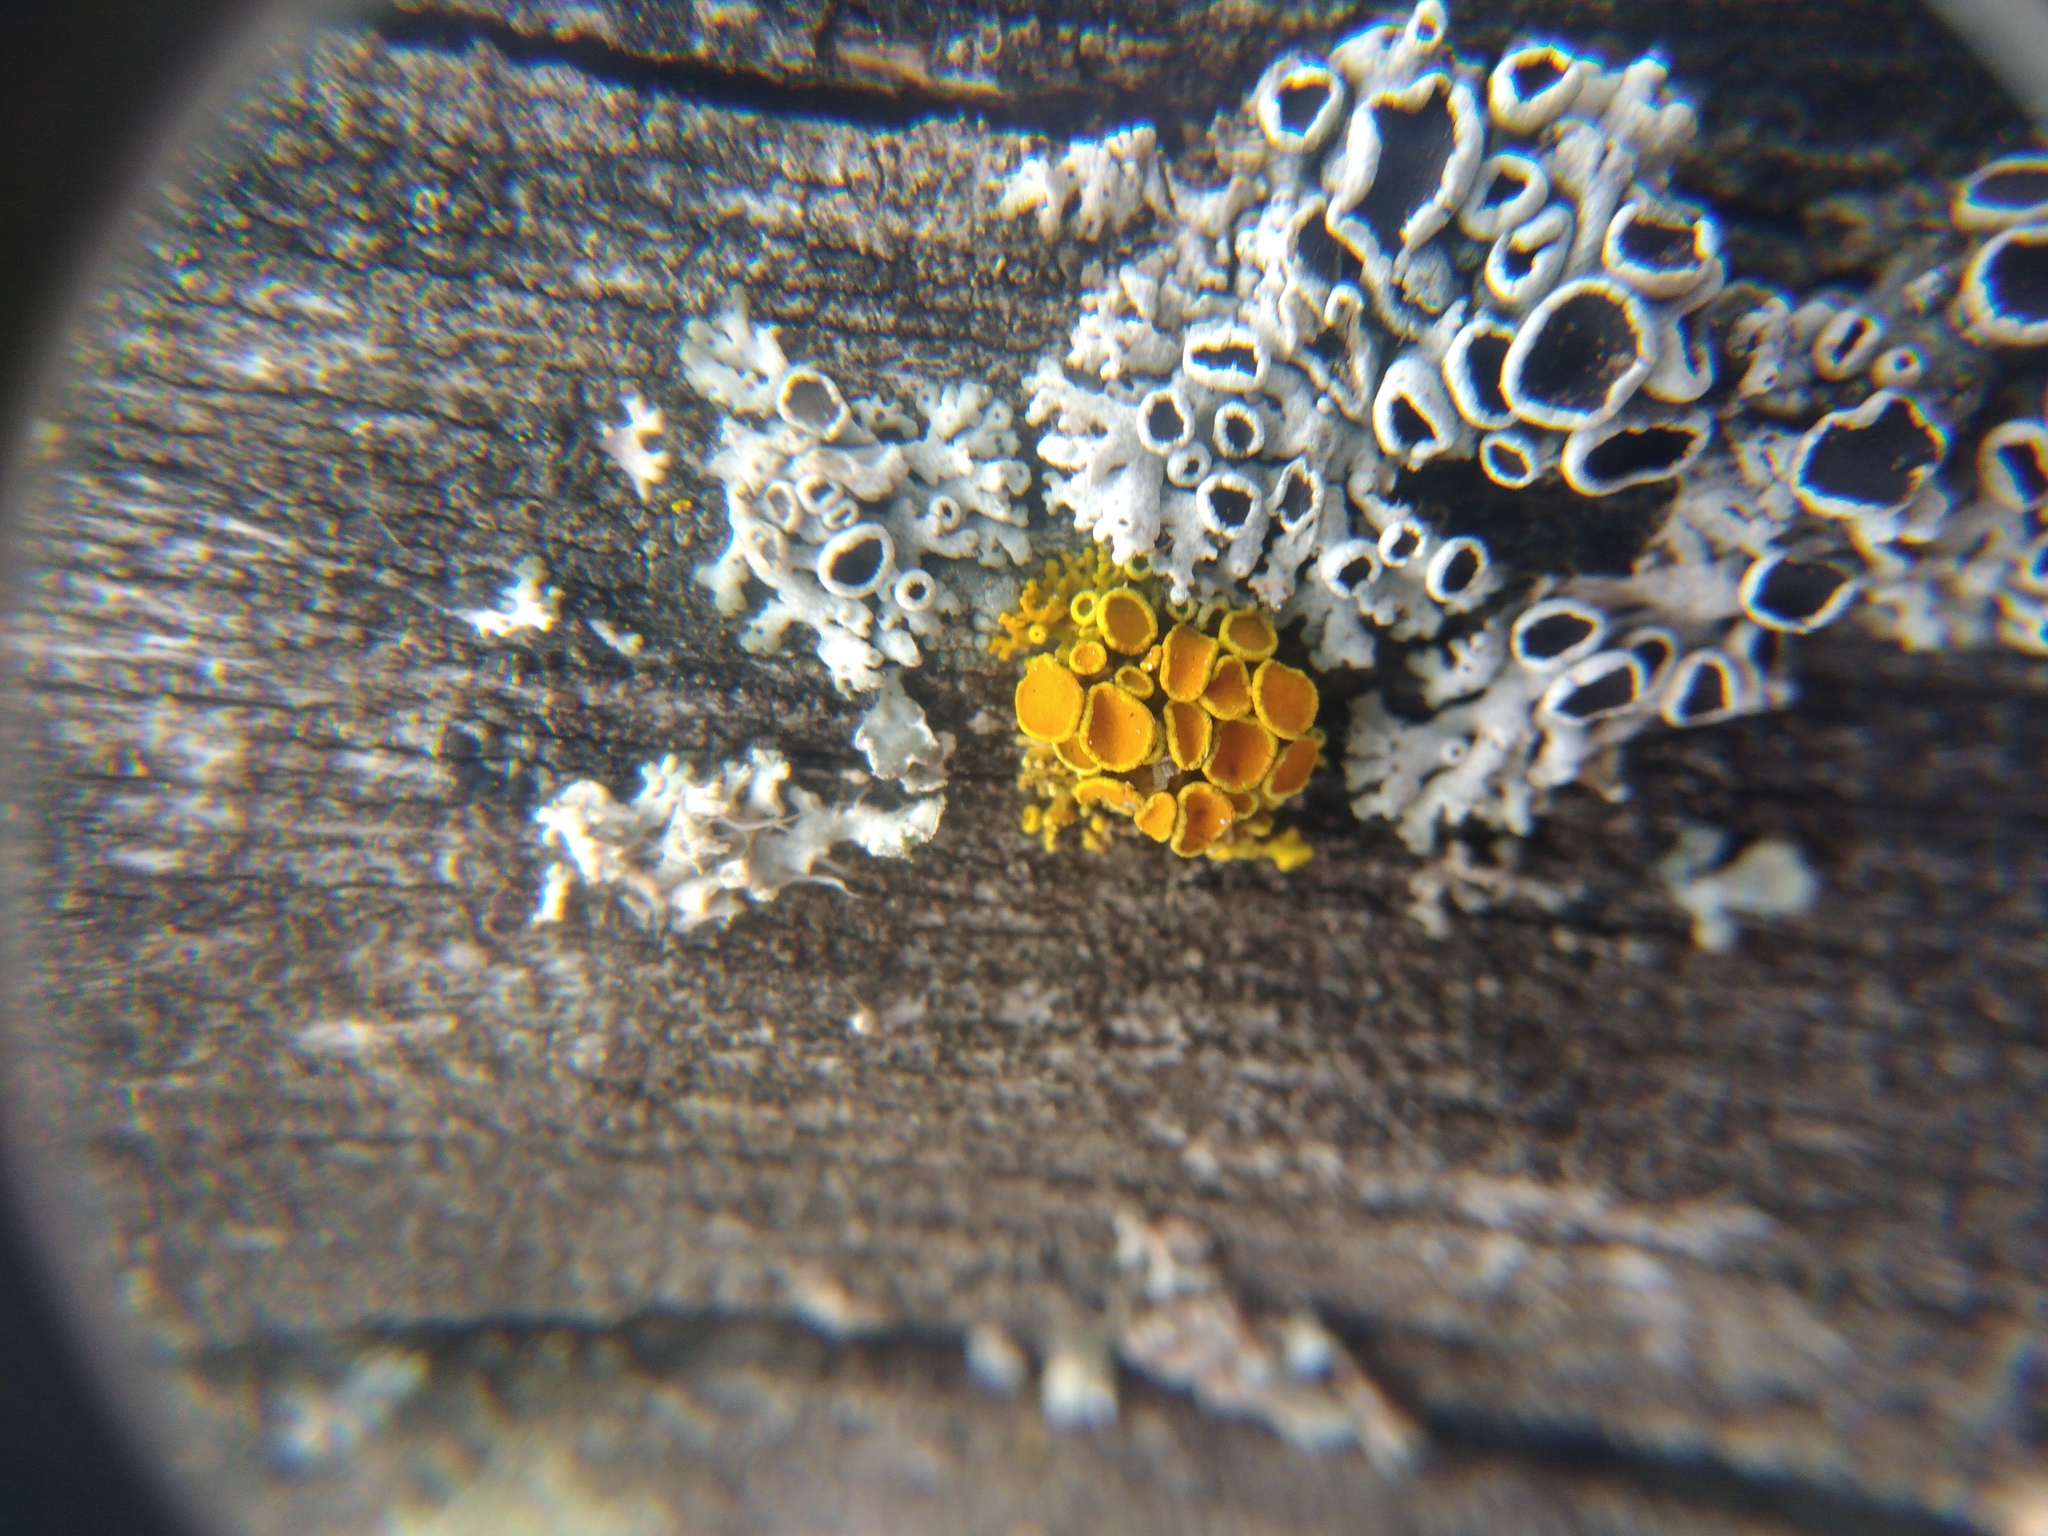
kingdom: Fungi
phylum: Ascomycota
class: Lecanoromycetes
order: Teloschistales
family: Teloschistaceae
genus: Polycauliona
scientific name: Polycauliona polycarpa
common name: Pin-cushion sunburst lichen
